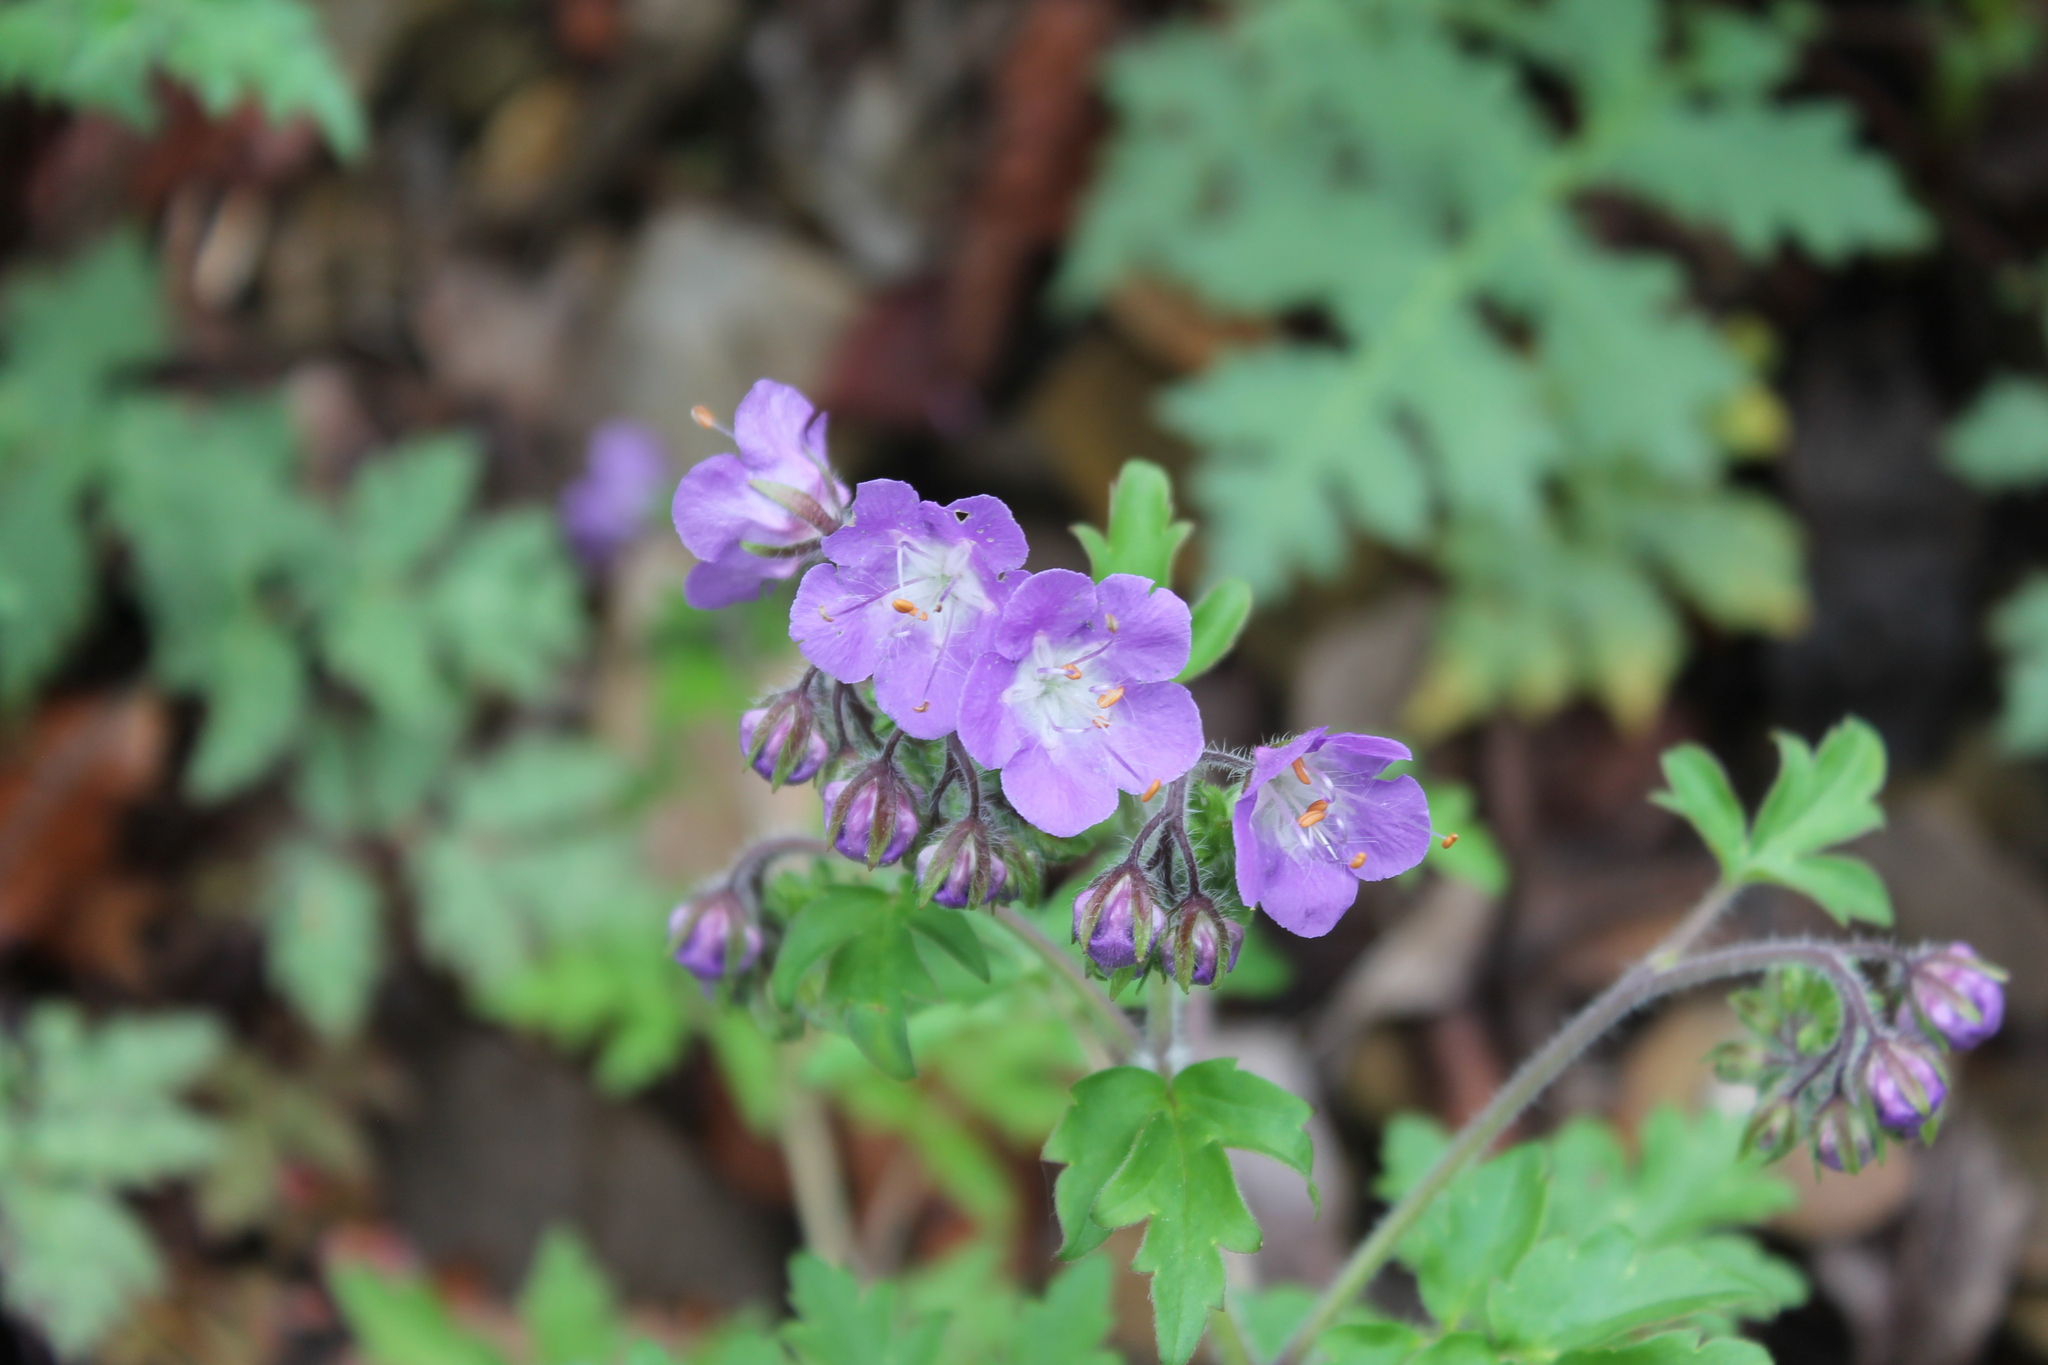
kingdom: Plantae
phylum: Tracheophyta
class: Magnoliopsida
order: Boraginales
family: Hydrophyllaceae
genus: Phacelia
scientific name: Phacelia bipinnatifida
